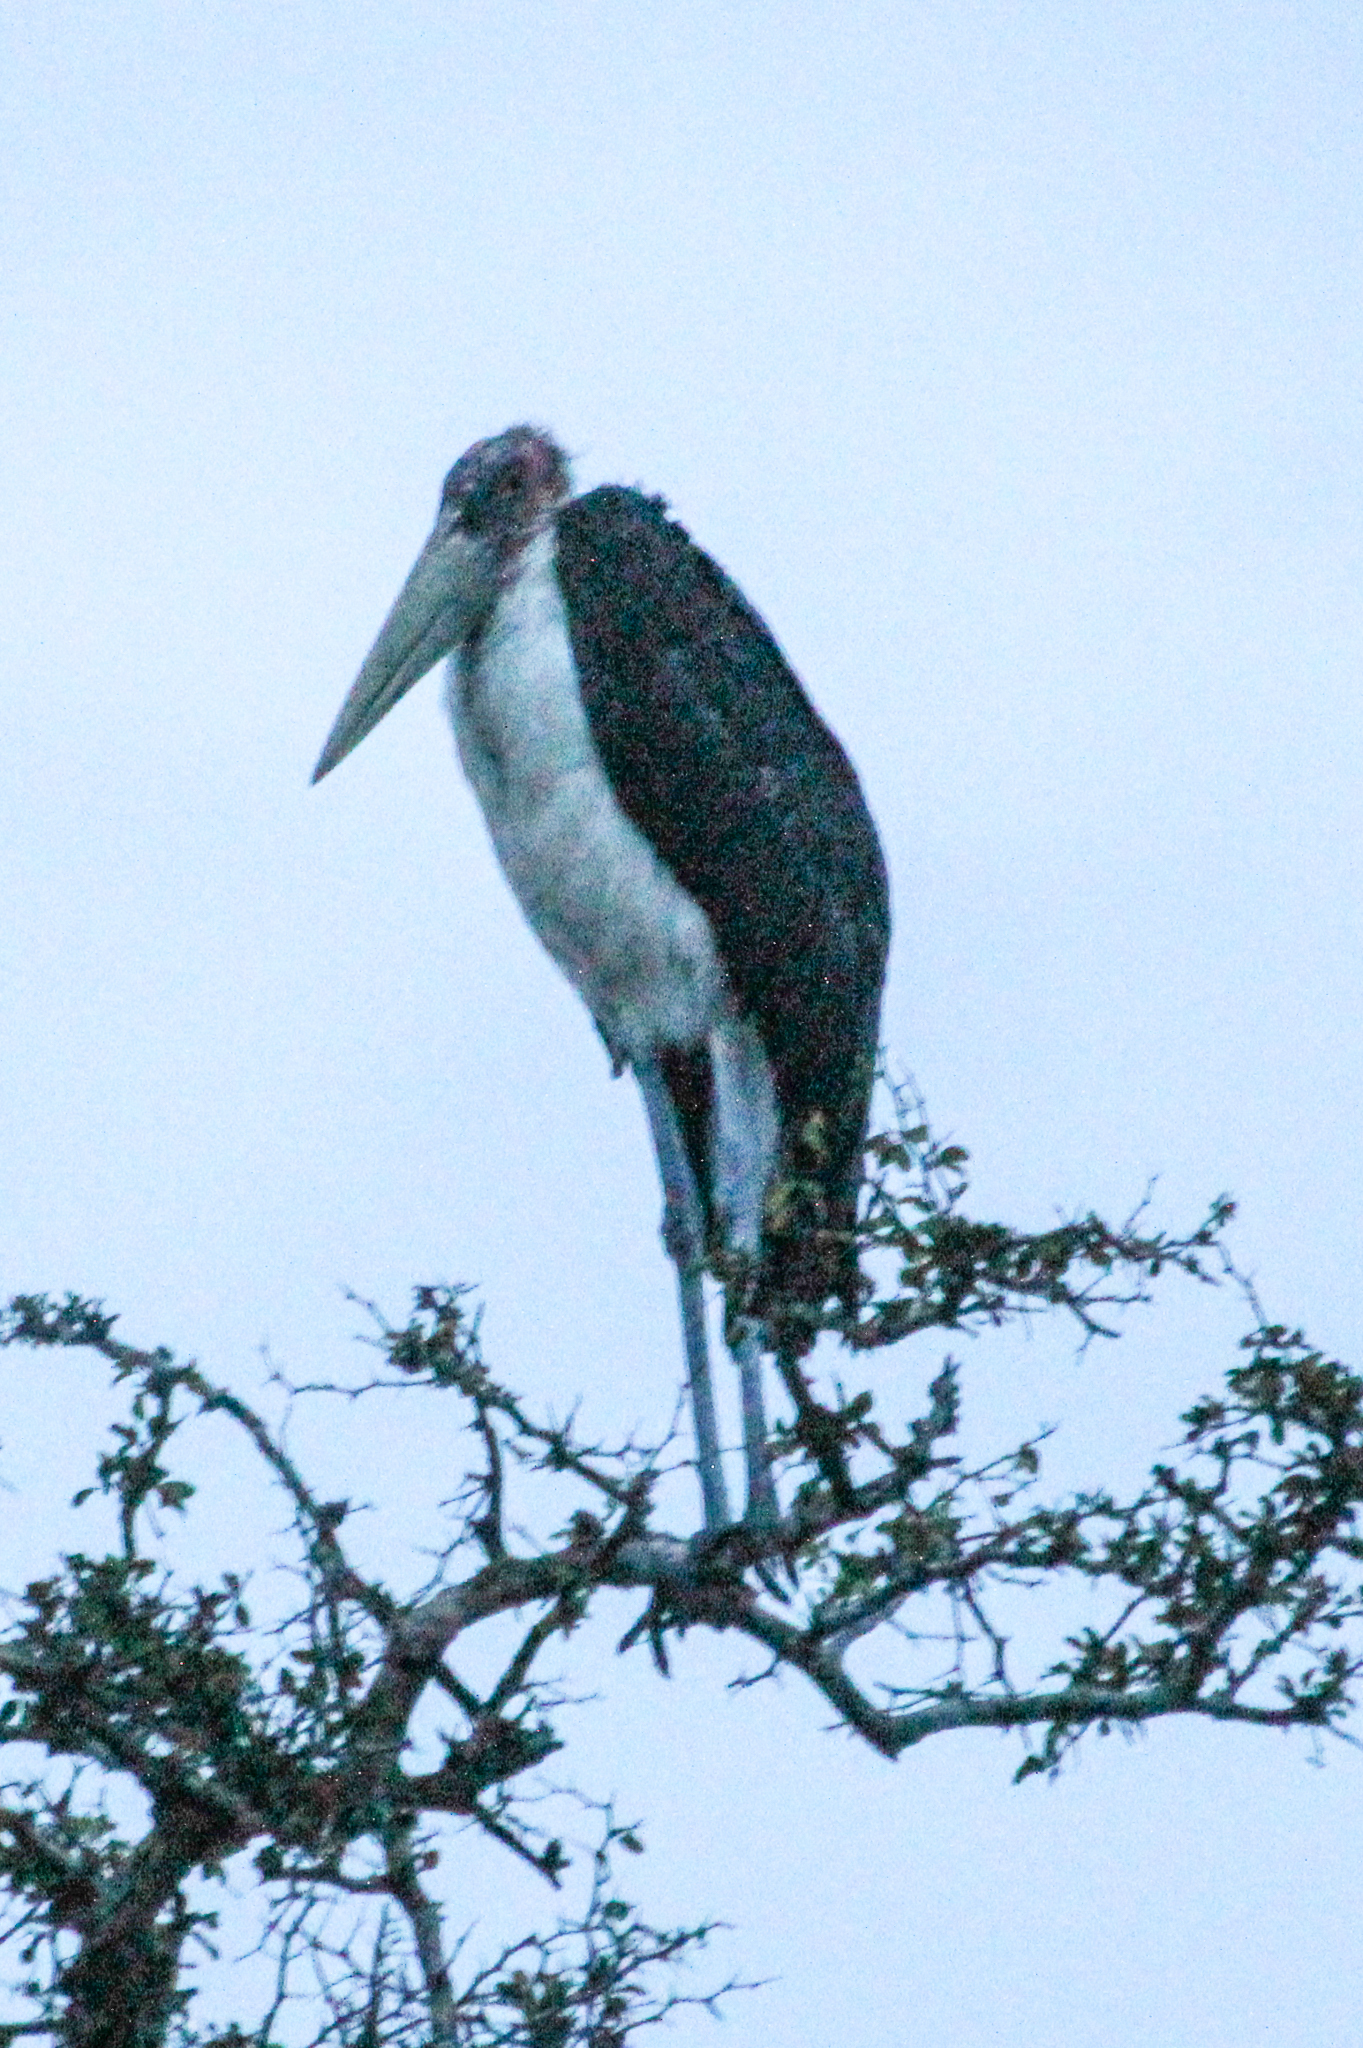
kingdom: Animalia
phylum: Chordata
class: Aves
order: Ciconiiformes
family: Ciconiidae
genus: Leptoptilos
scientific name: Leptoptilos crumenifer
